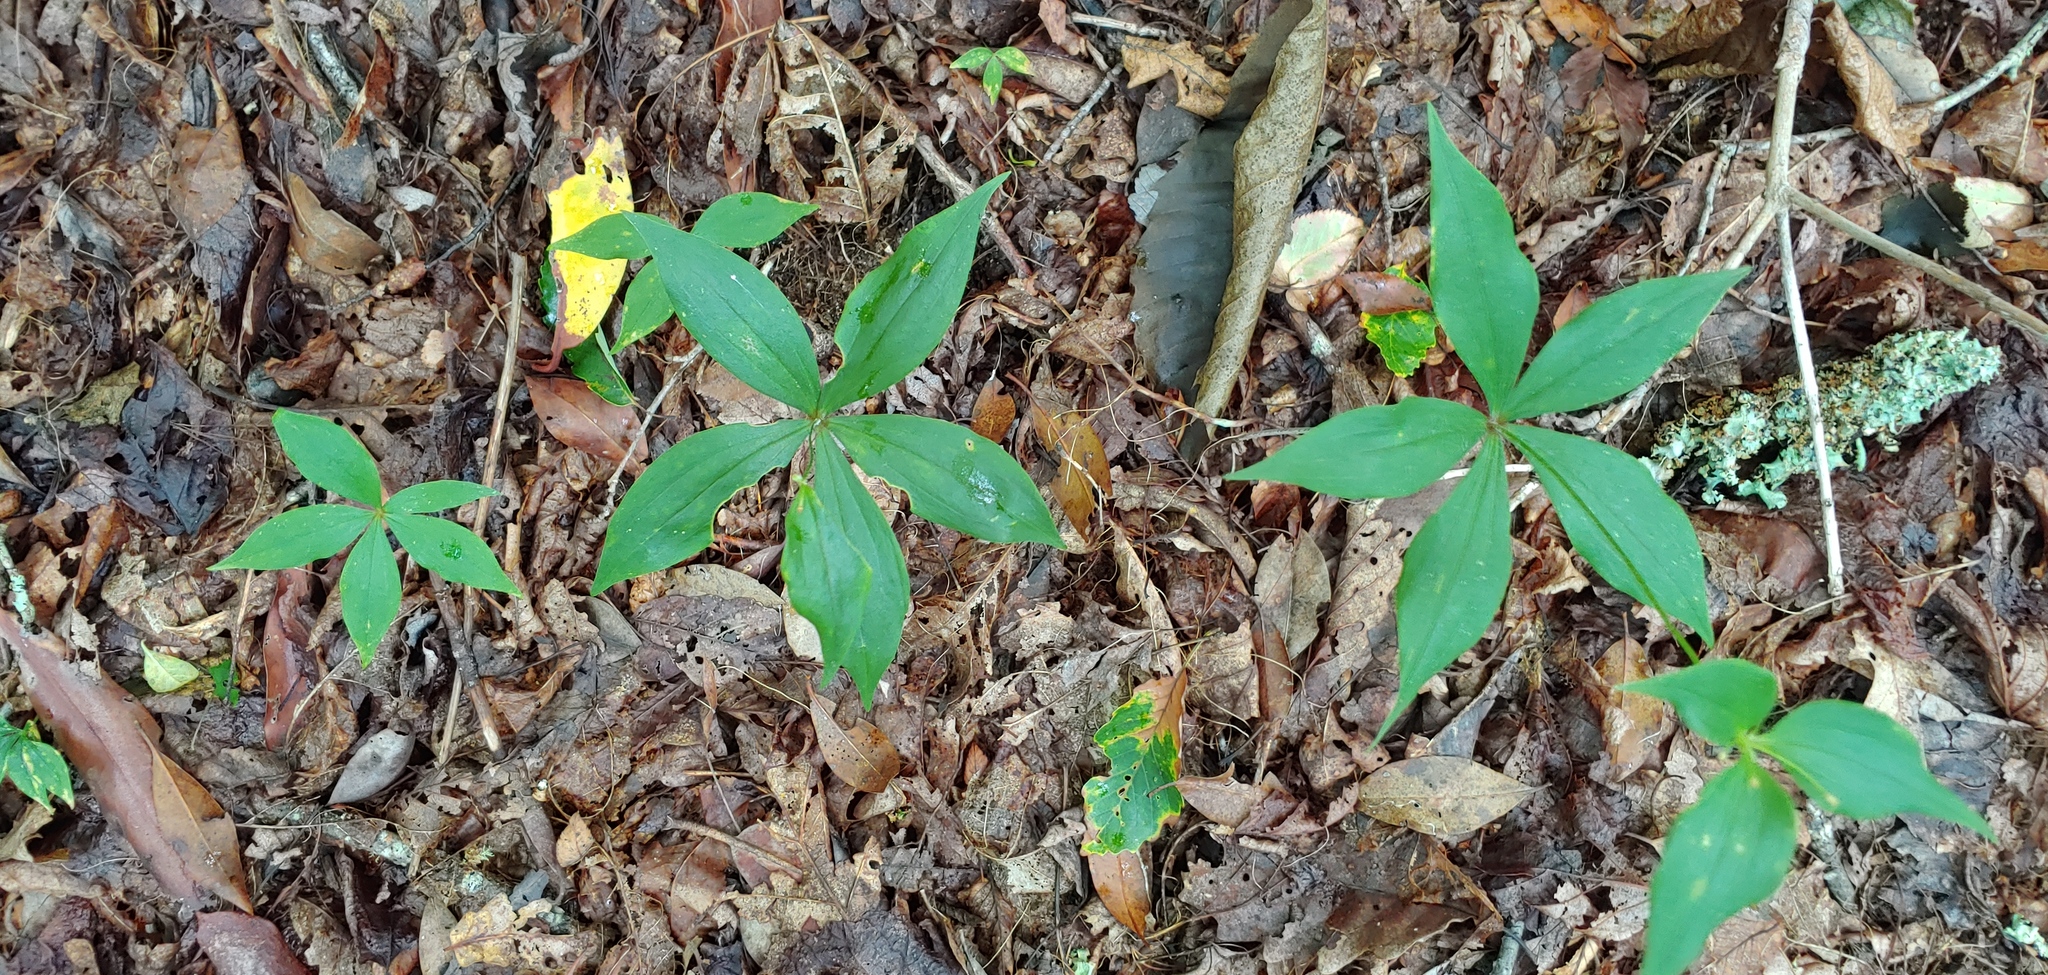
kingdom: Plantae
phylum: Tracheophyta
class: Liliopsida
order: Liliales
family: Liliaceae
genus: Medeola
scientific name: Medeola virginiana
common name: Indian cucumber-root
